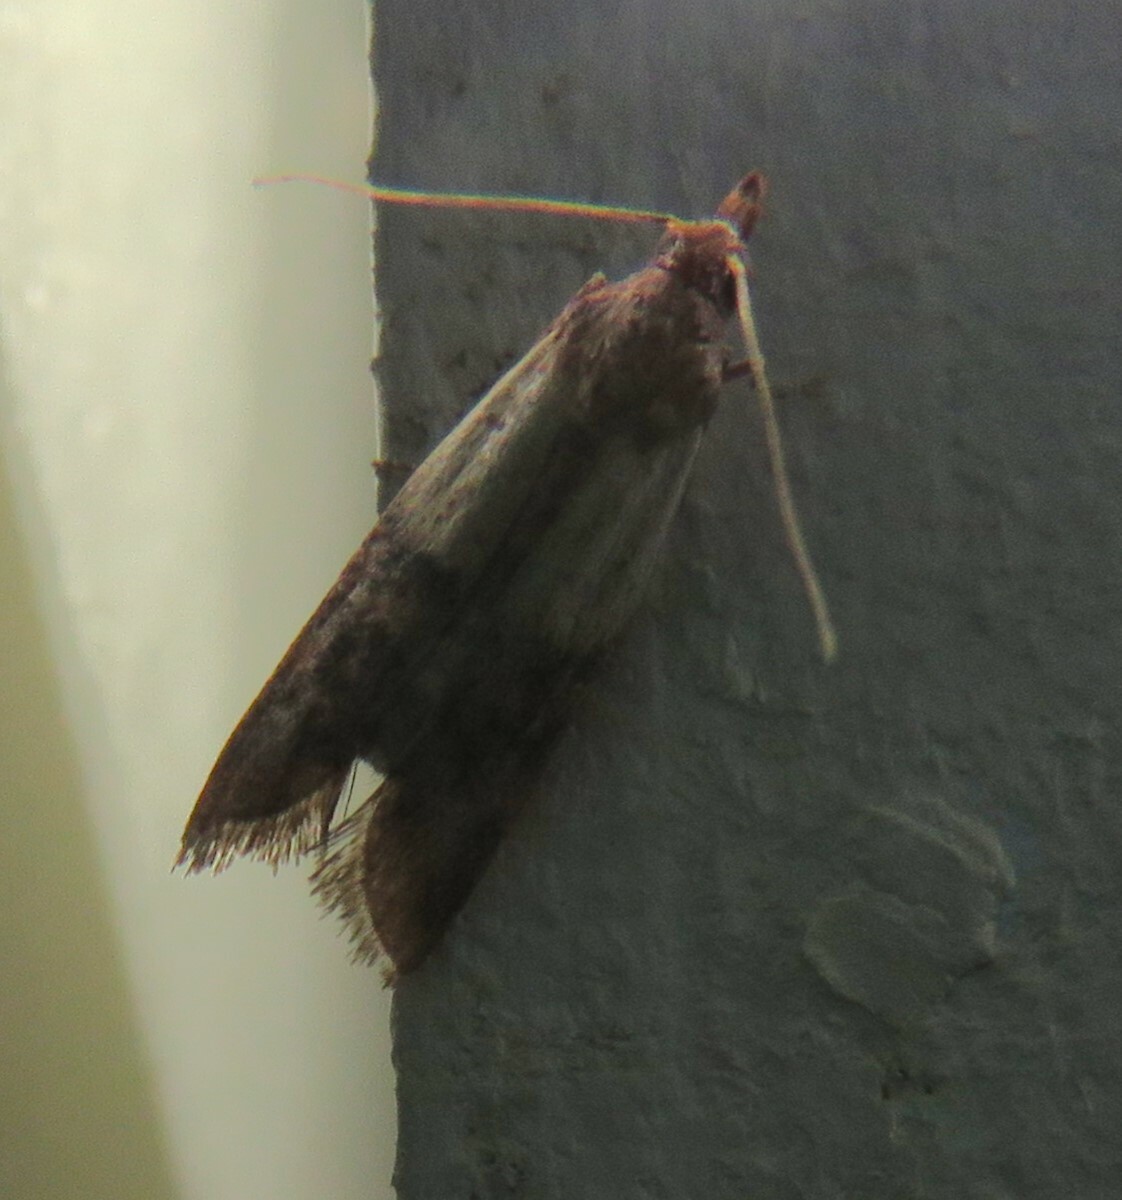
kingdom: Animalia
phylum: Arthropoda
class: Insecta
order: Lepidoptera
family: Pyralidae
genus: Plodia
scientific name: Plodia interpunctella
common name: Indian meal moth
